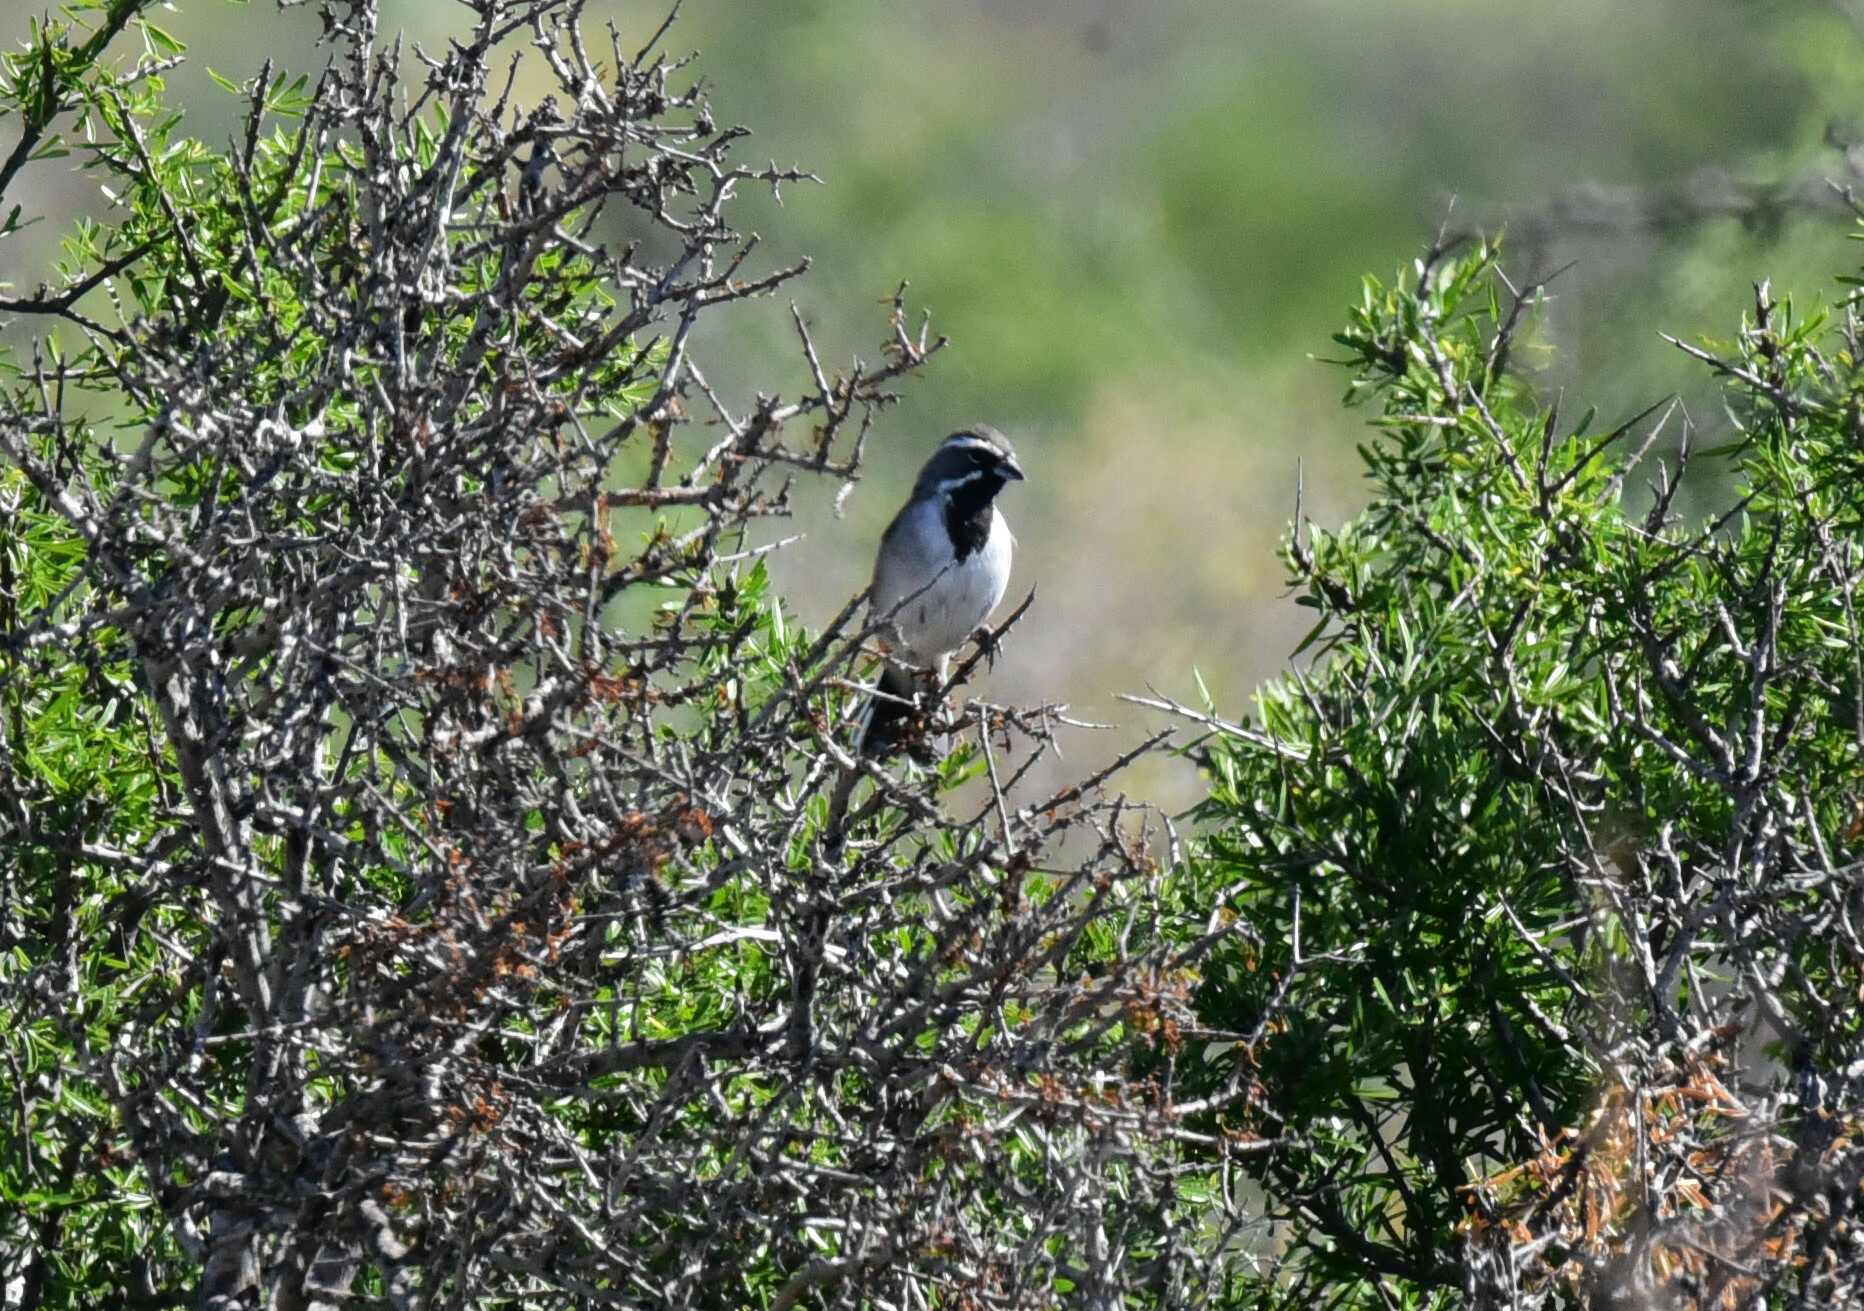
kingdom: Animalia
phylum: Chordata
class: Aves
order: Passeriformes
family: Passerellidae
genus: Amphispiza
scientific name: Amphispiza bilineata
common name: Black-throated sparrow
